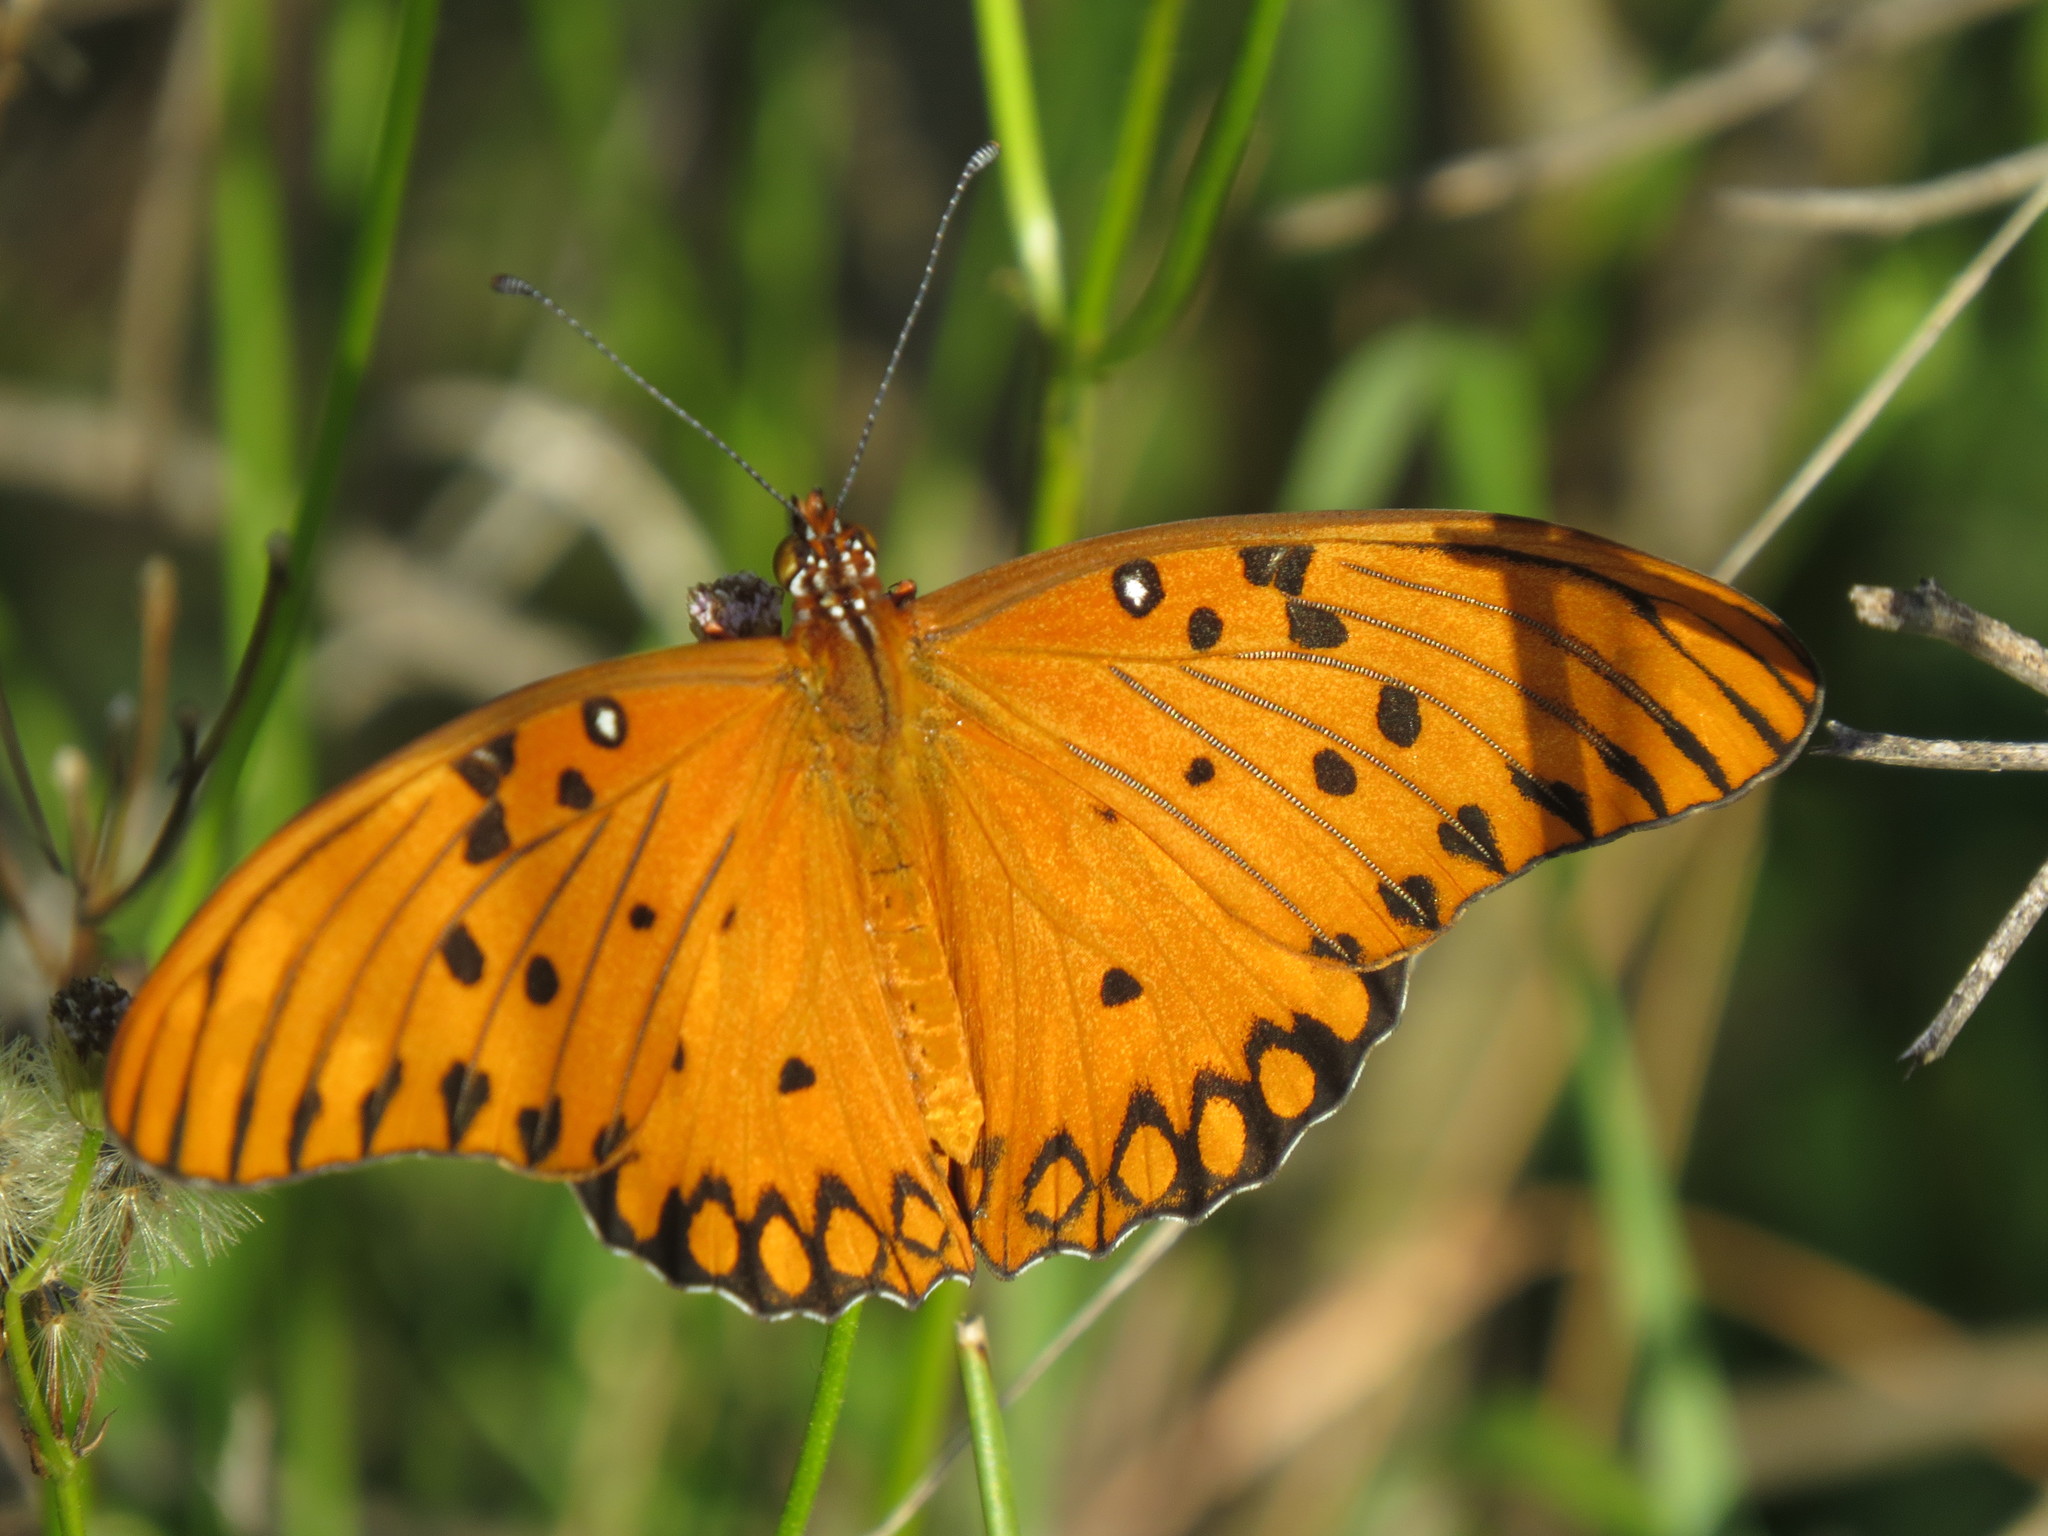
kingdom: Animalia
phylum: Arthropoda
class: Insecta
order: Lepidoptera
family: Nymphalidae
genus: Dione
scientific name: Dione vanillae
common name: Gulf fritillary
